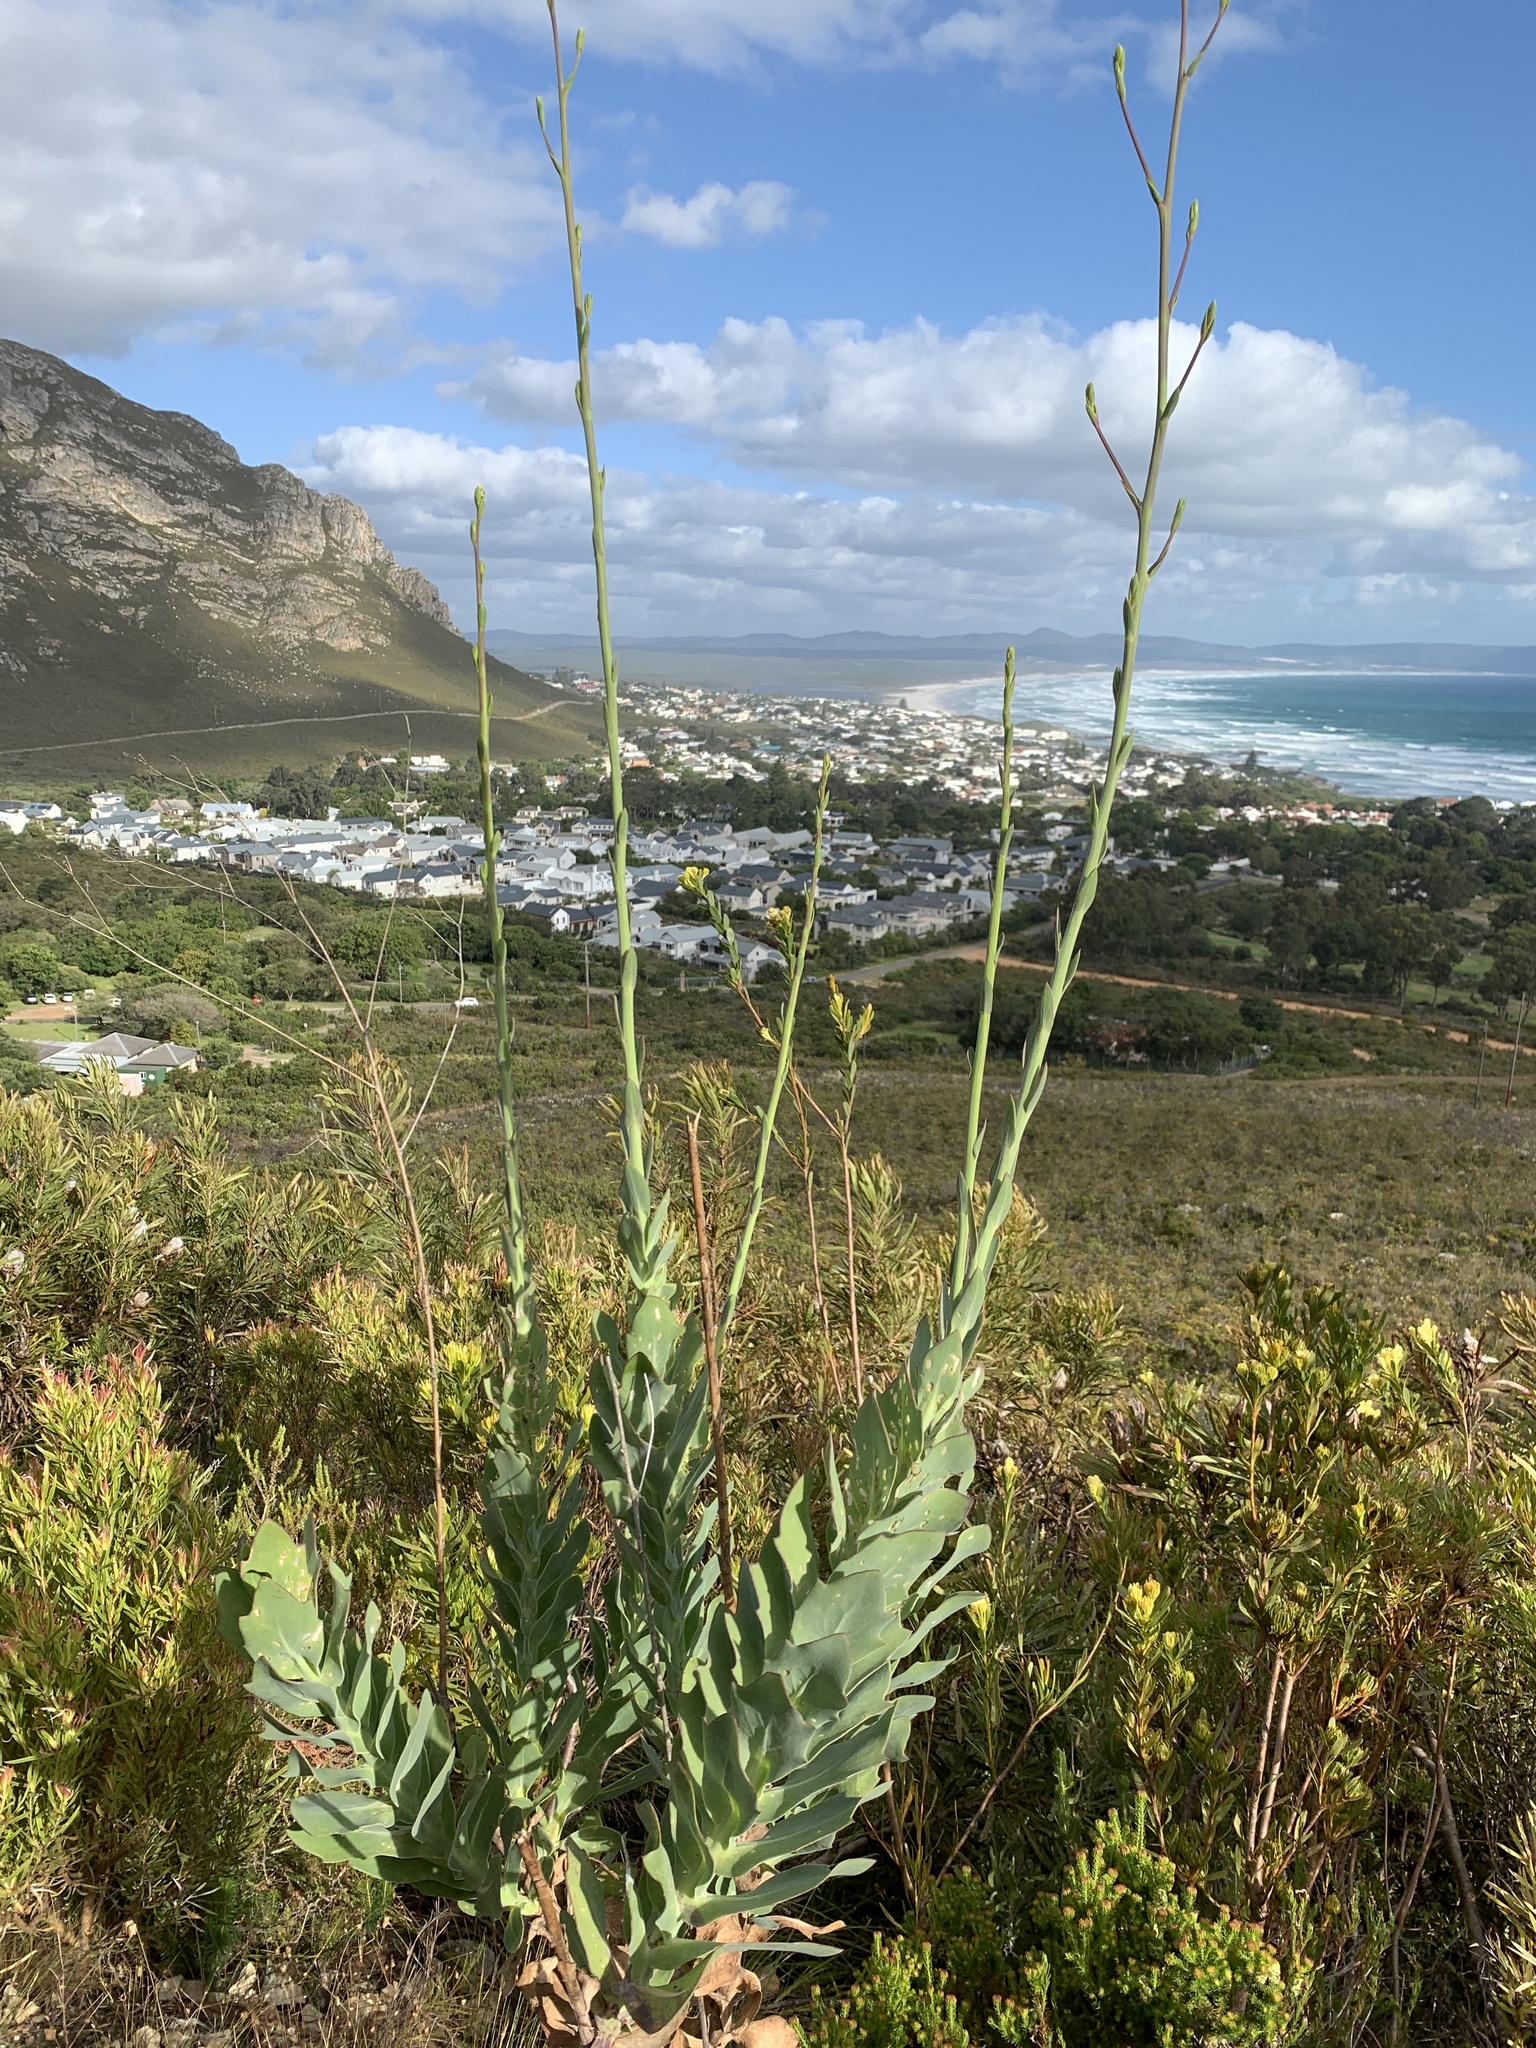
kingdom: Plantae
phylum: Tracheophyta
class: Magnoliopsida
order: Asterales
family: Asteraceae
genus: Othonna
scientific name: Othonna quinquedentata
